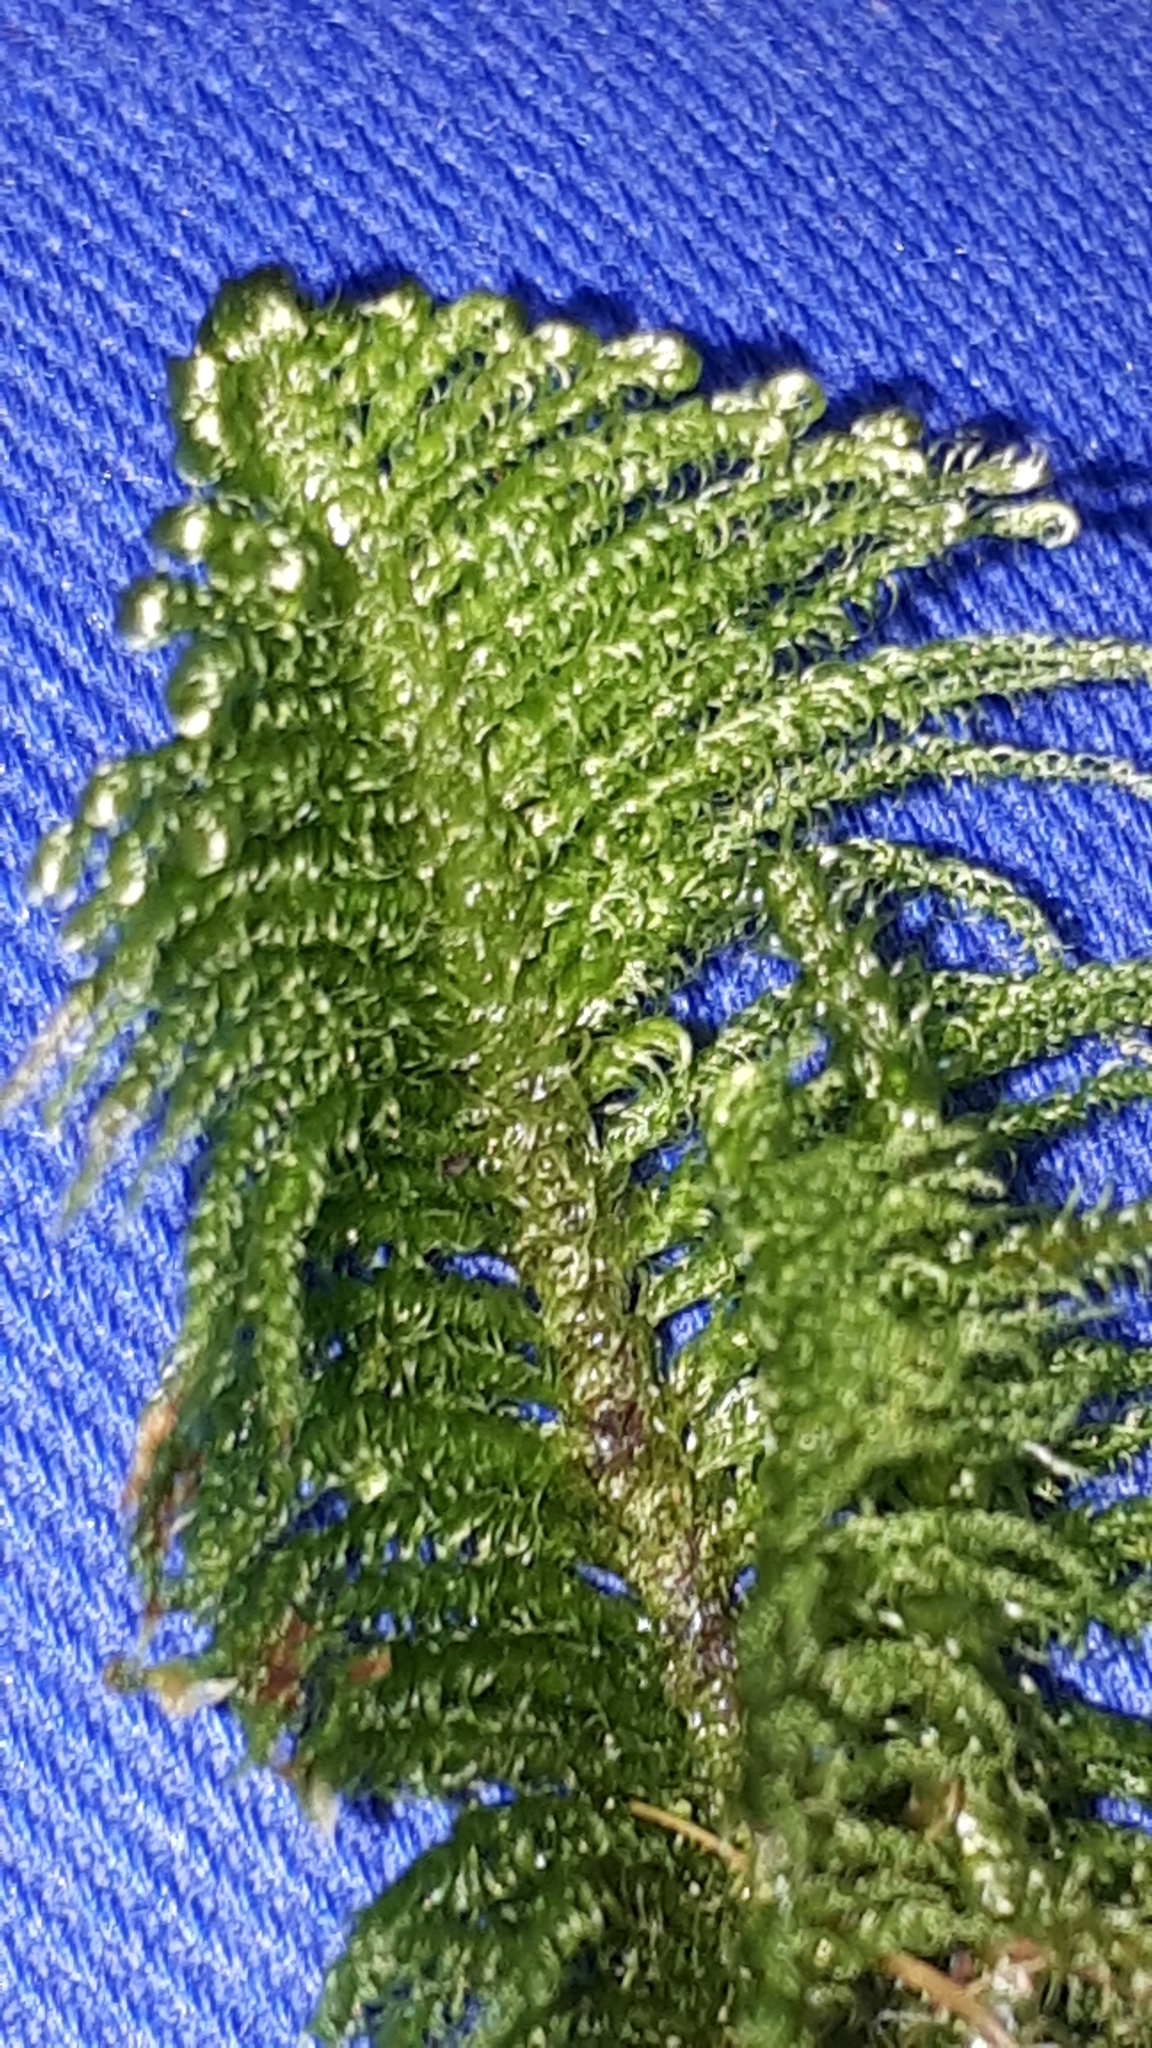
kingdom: Plantae
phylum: Bryophyta
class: Bryopsida
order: Hypnales
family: Pylaisiaceae
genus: Ptilium
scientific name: Ptilium crista-castrensis
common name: Knight's plume moss
